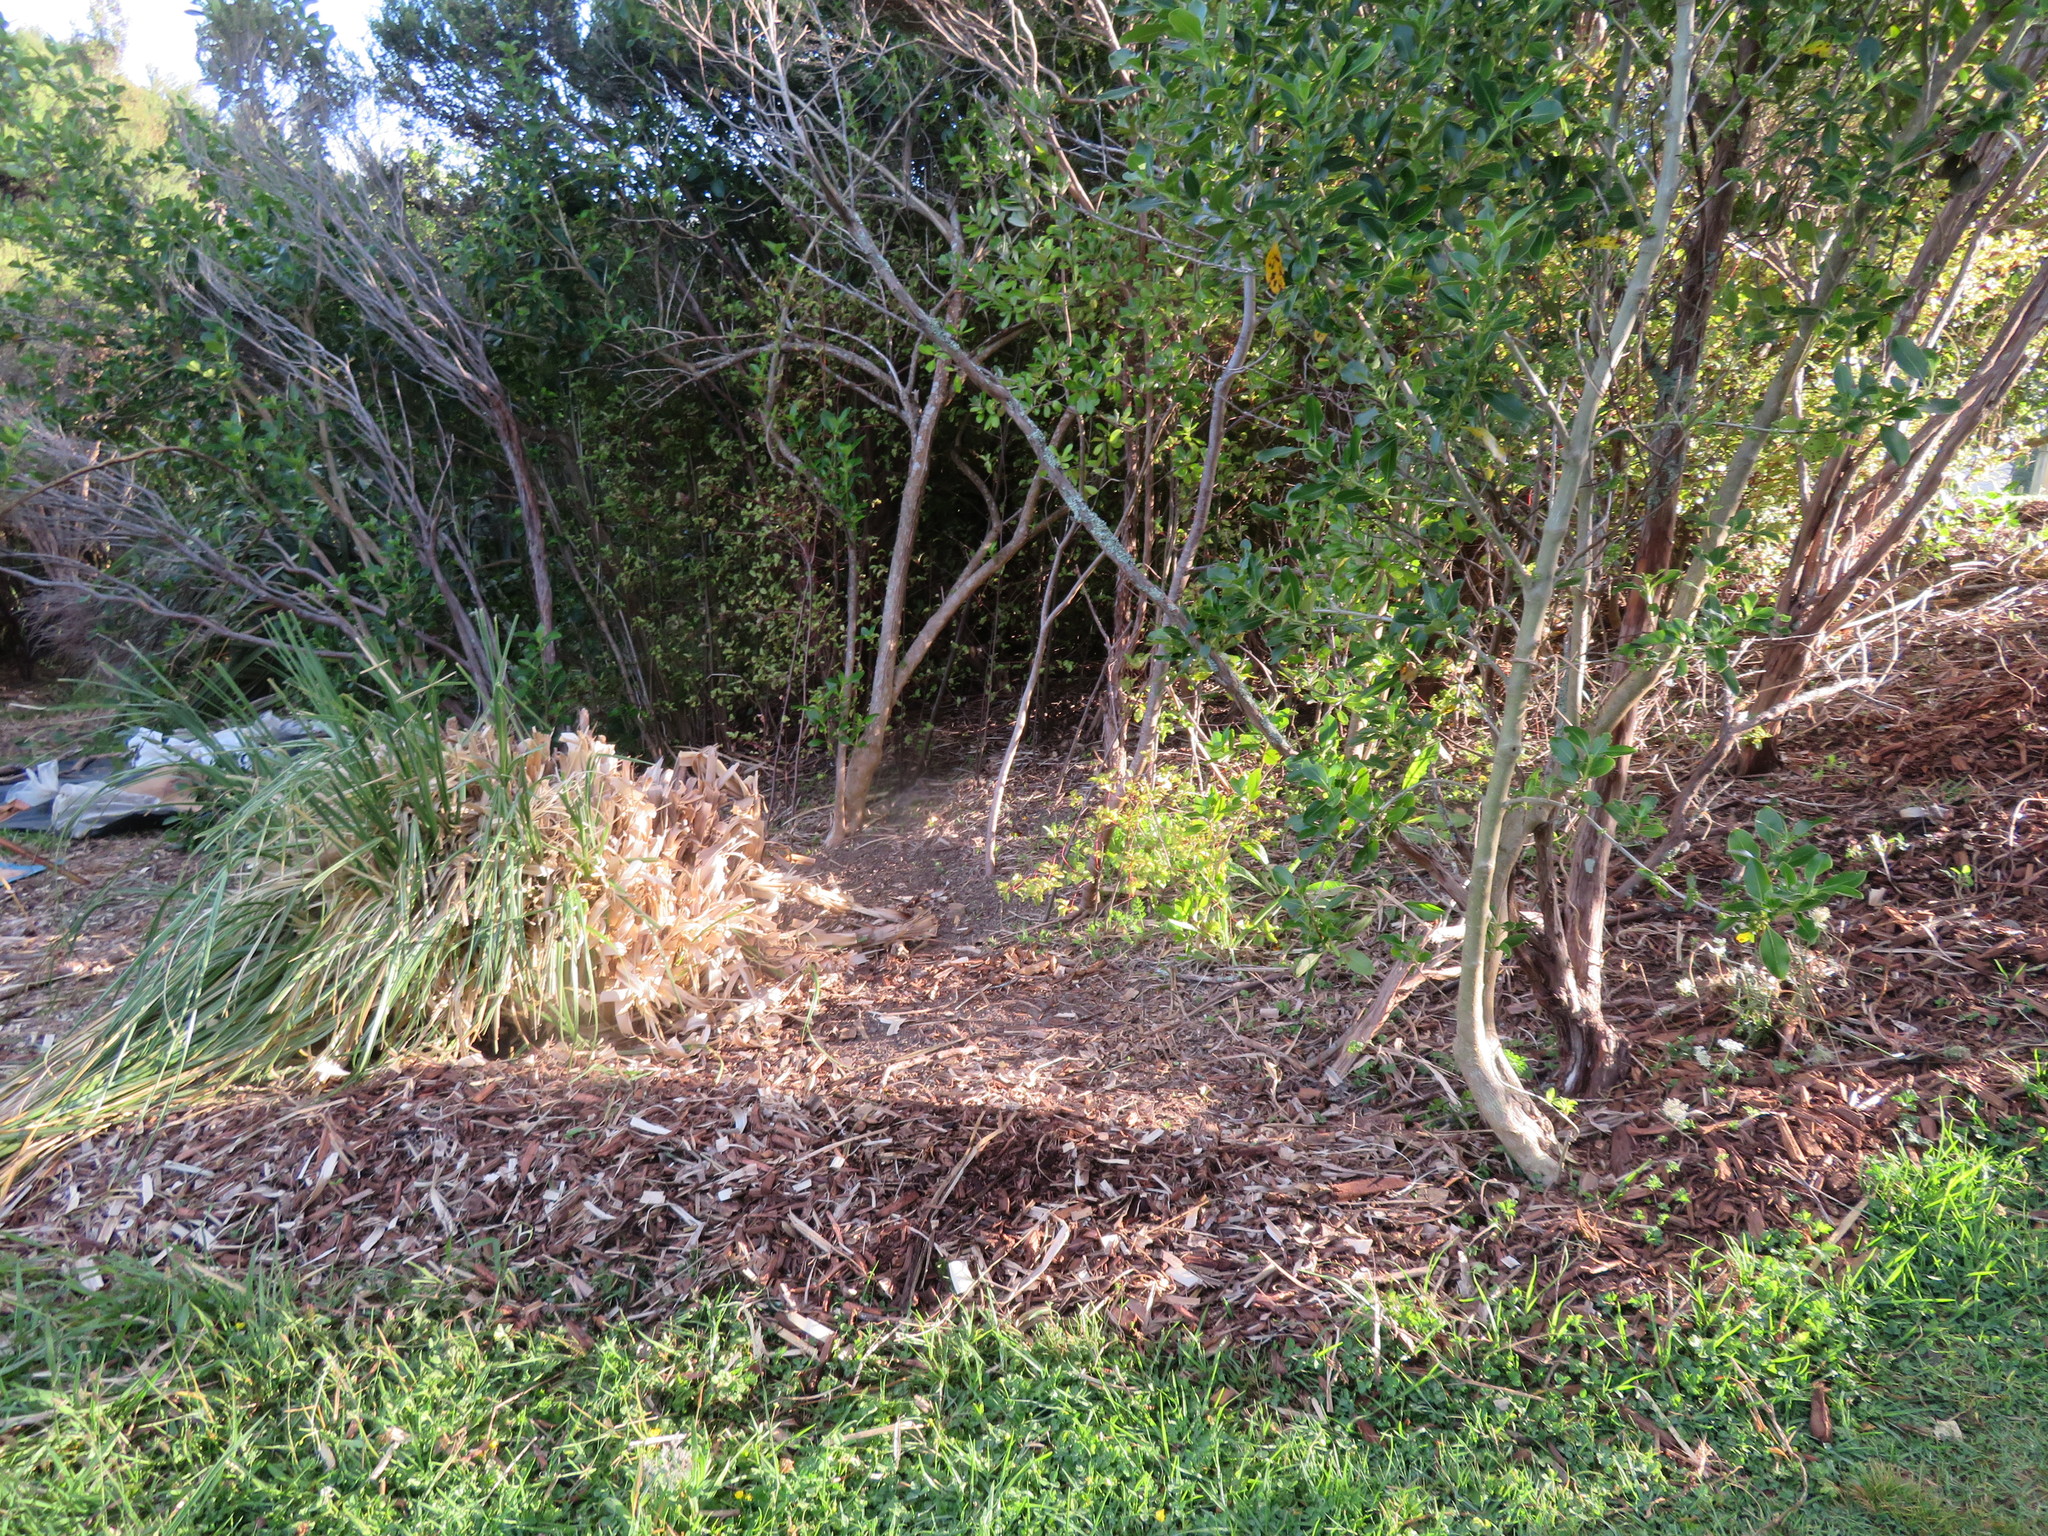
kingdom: Plantae
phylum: Tracheophyta
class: Magnoliopsida
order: Gentianales
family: Rubiaceae
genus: Coprosma
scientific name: Coprosma robusta
